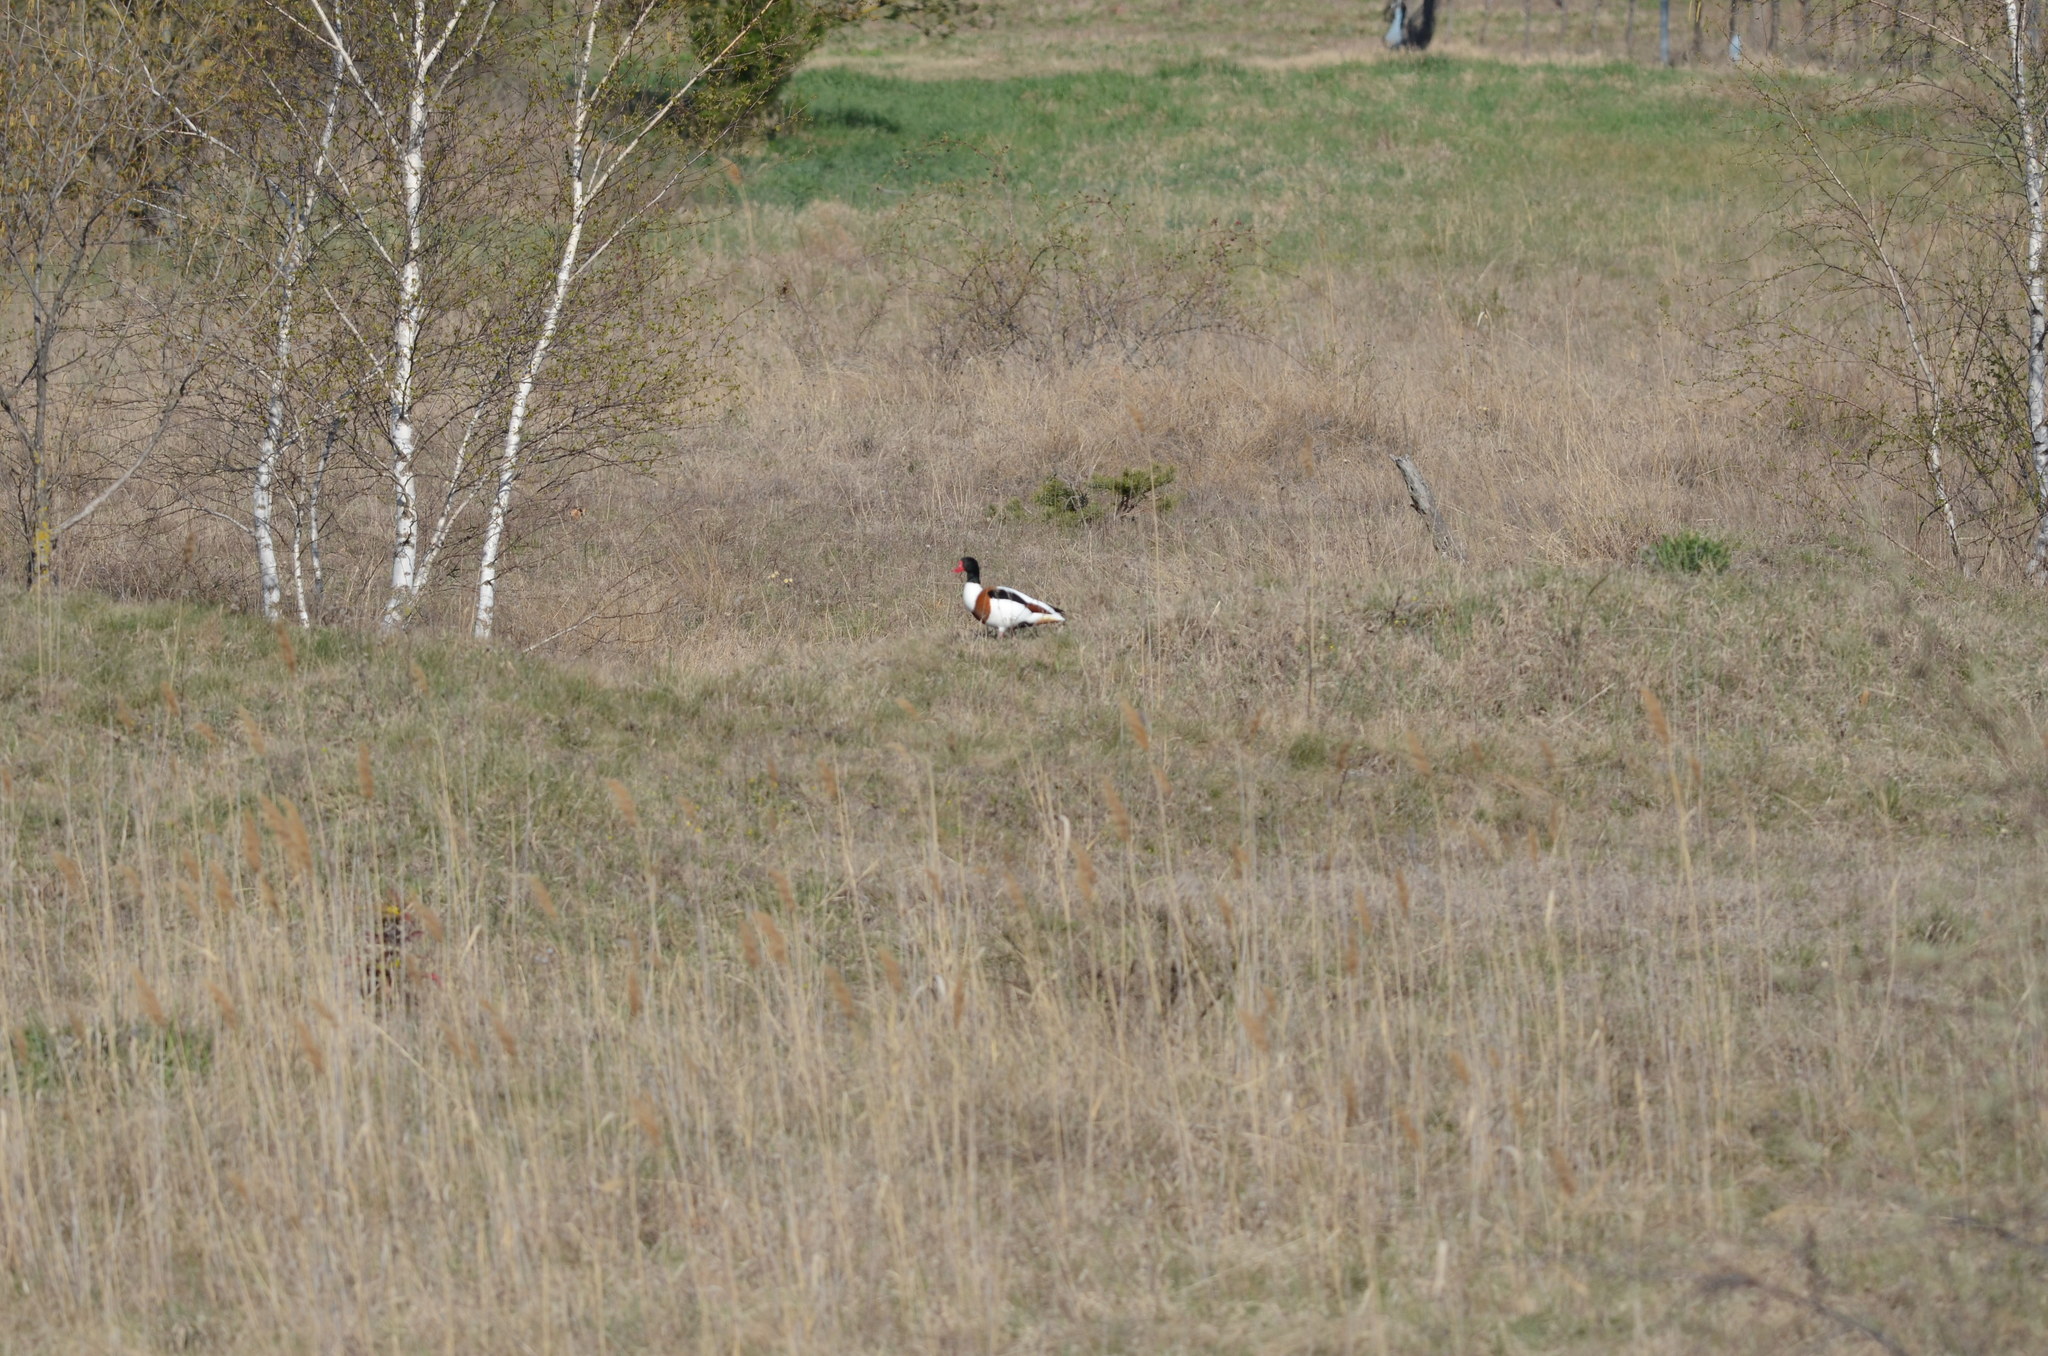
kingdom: Animalia
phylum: Chordata
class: Aves
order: Anseriformes
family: Anatidae
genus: Tadorna
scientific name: Tadorna tadorna
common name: Common shelduck
